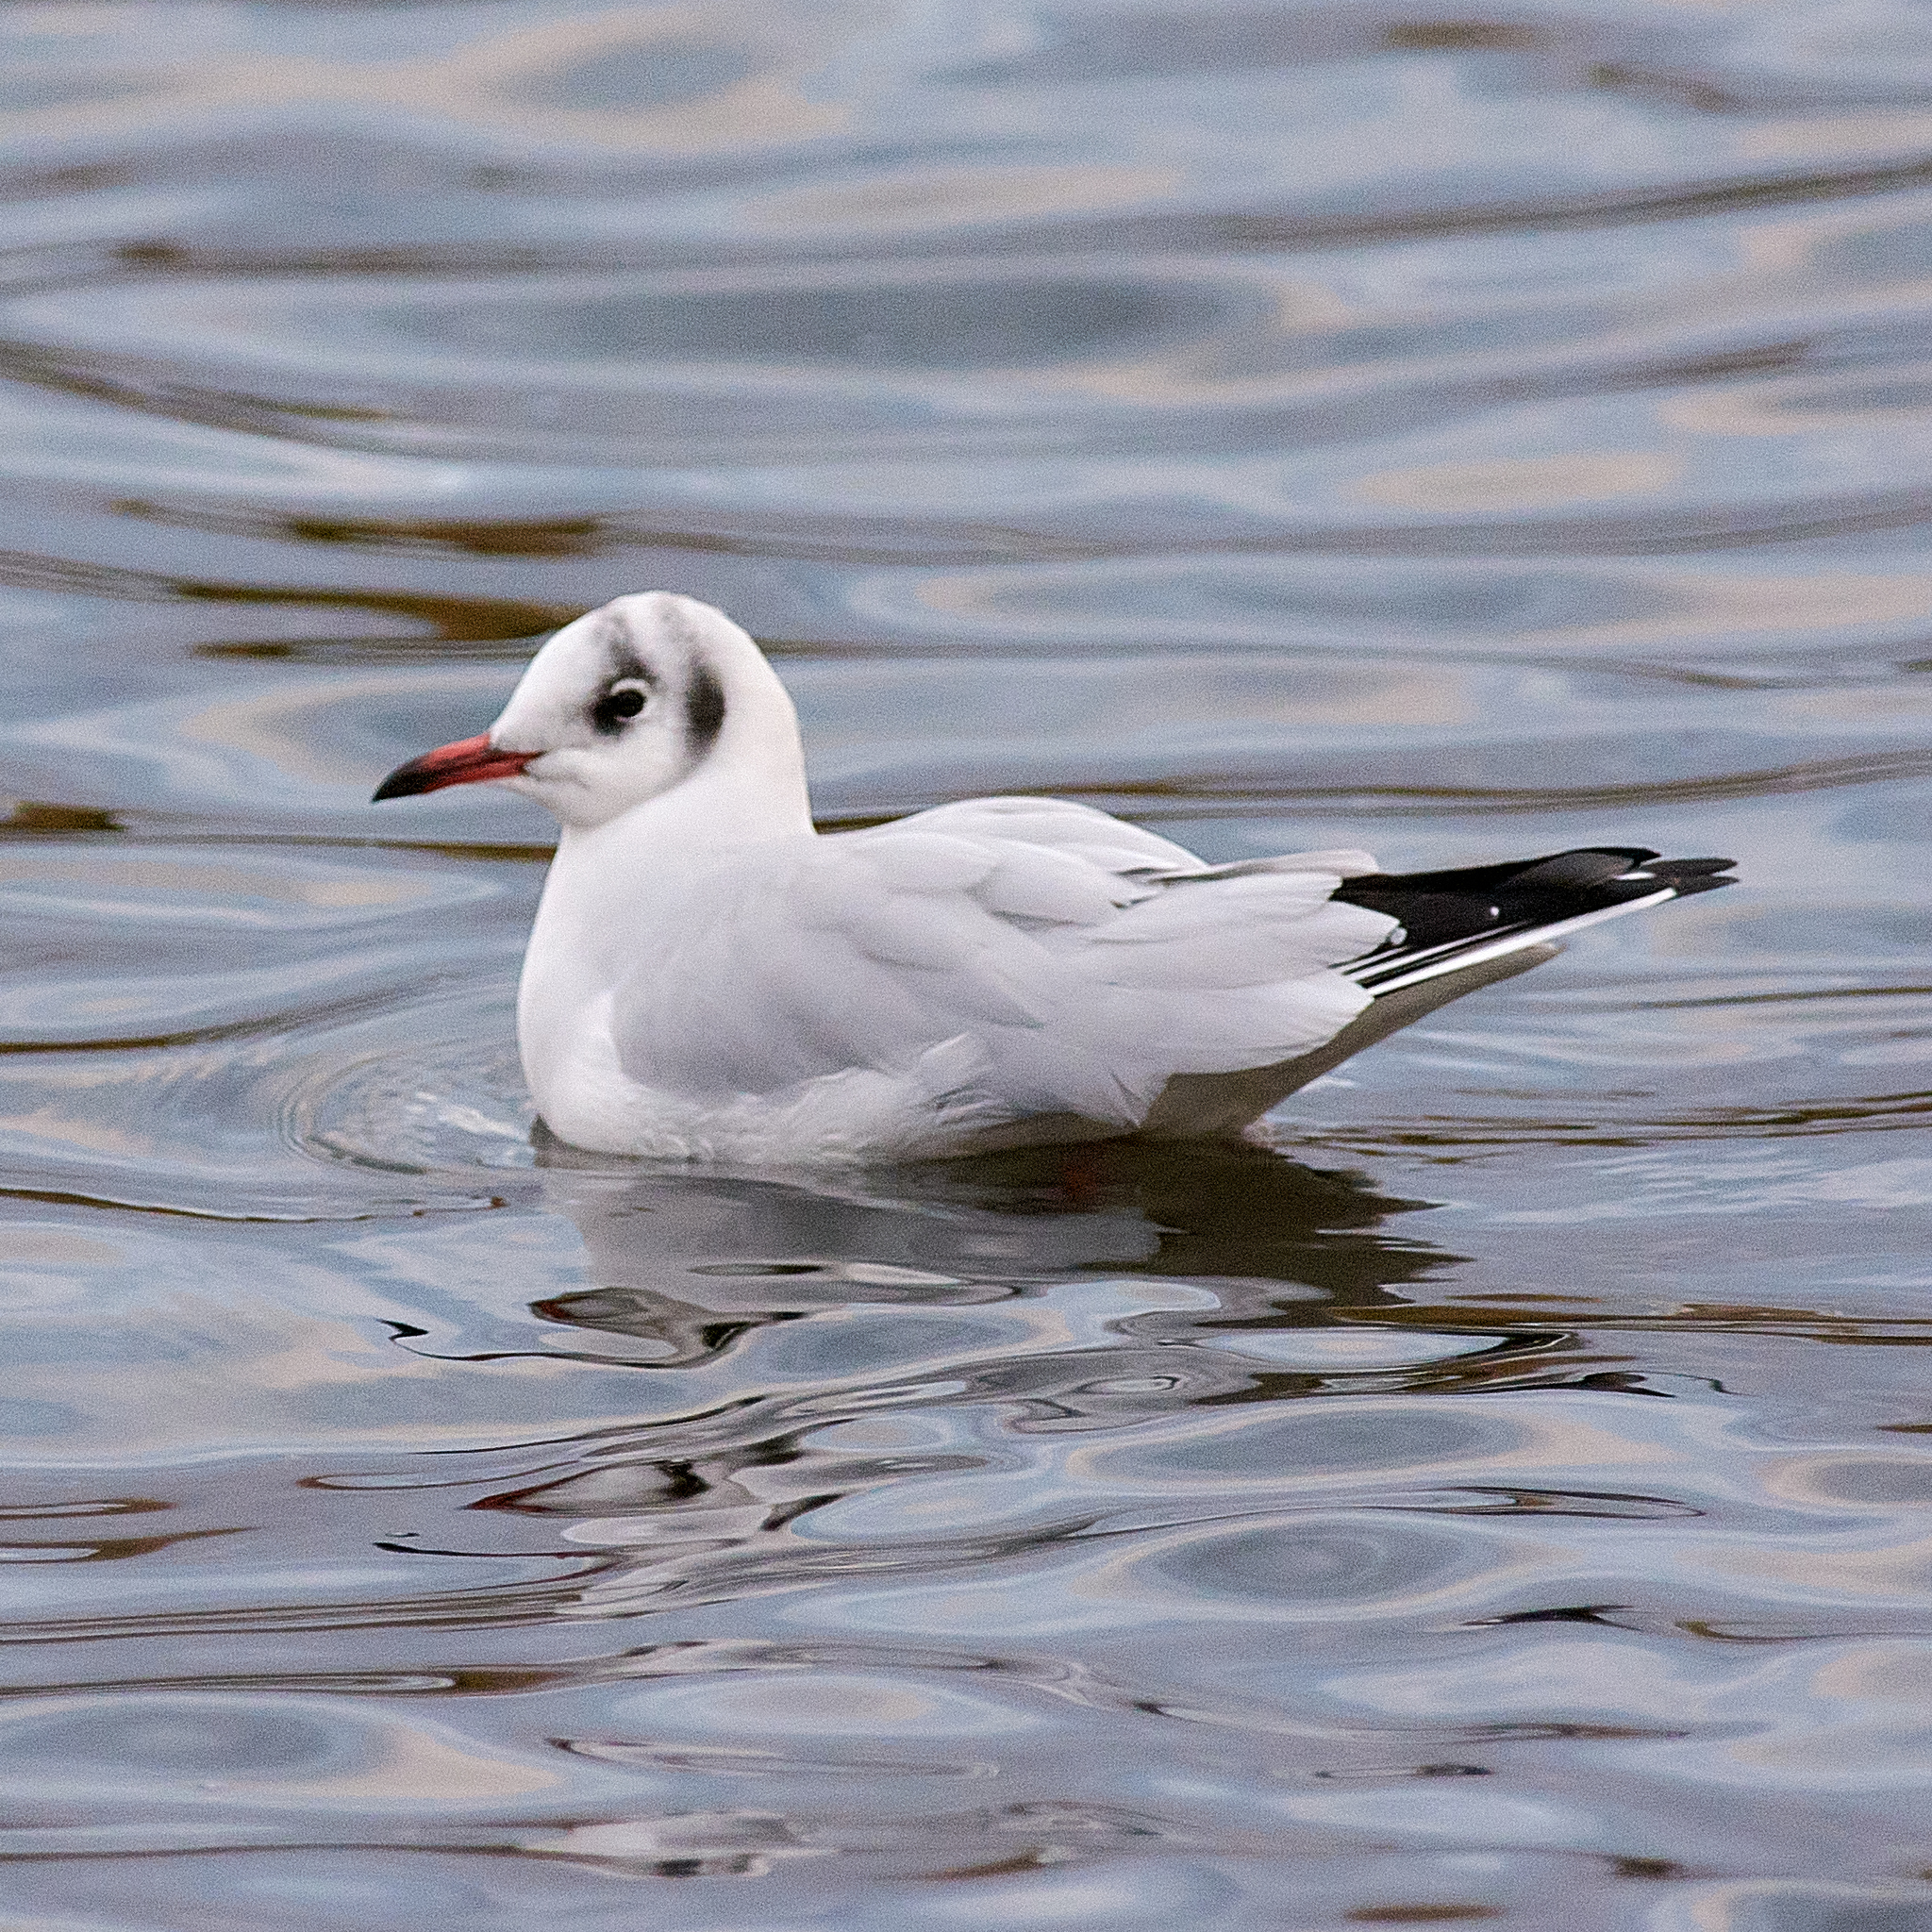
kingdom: Animalia
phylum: Chordata
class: Aves
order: Charadriiformes
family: Laridae
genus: Chroicocephalus
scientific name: Chroicocephalus ridibundus
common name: Black-headed gull
